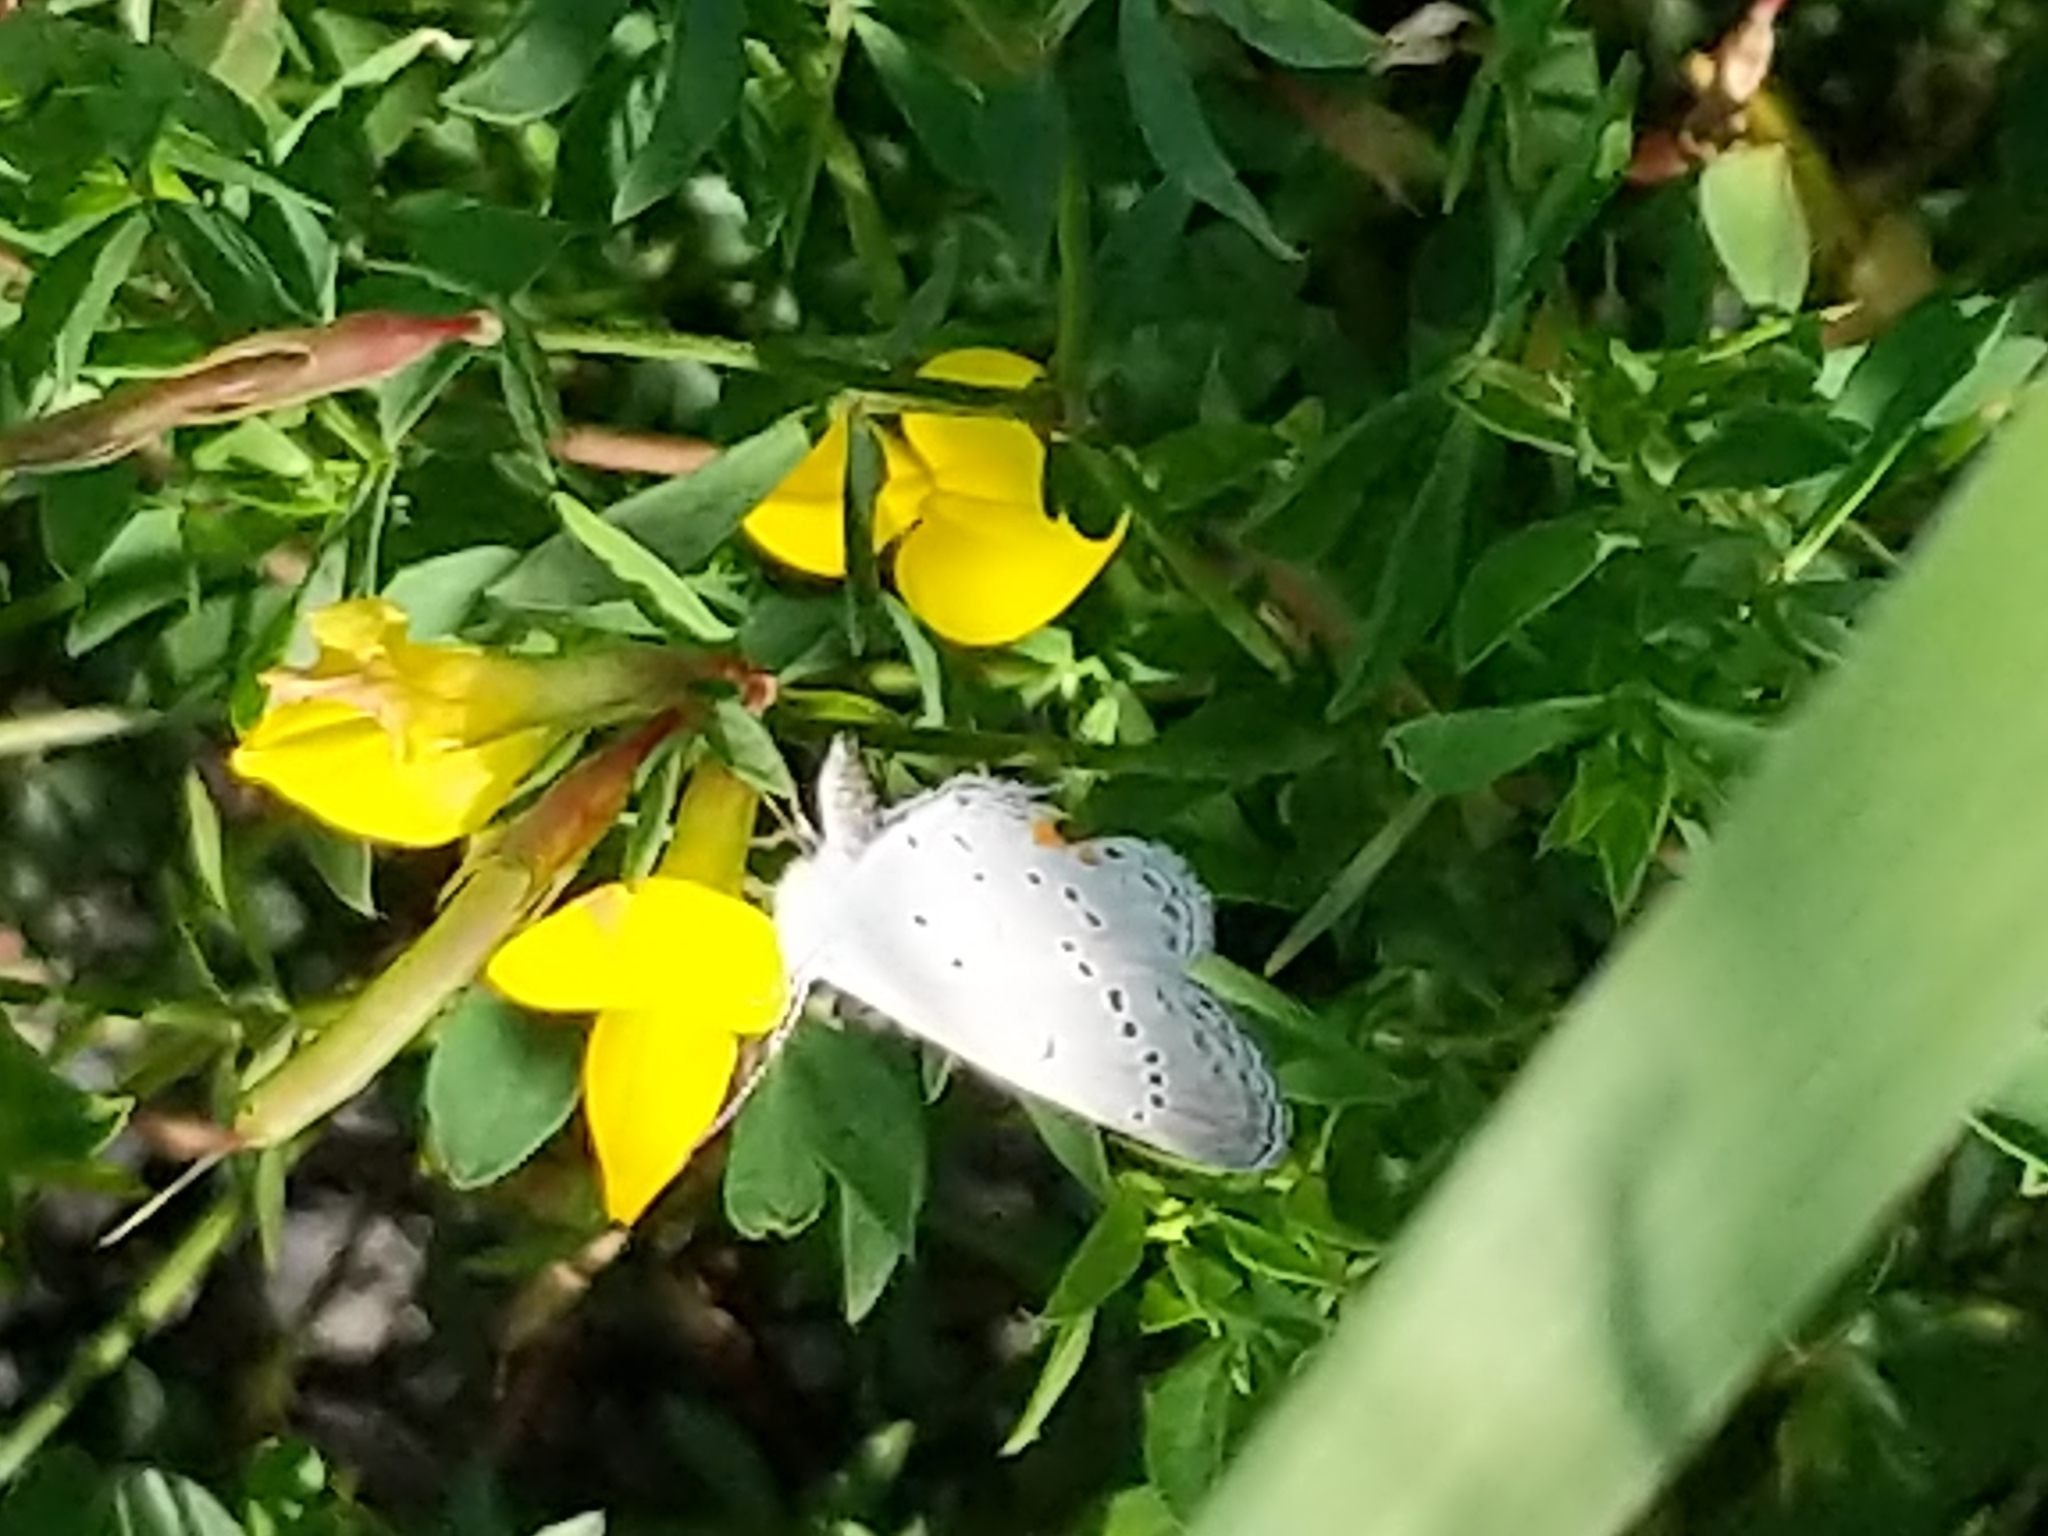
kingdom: Animalia
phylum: Arthropoda
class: Insecta
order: Lepidoptera
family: Lycaenidae
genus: Elkalyce
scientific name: Elkalyce comyntas
